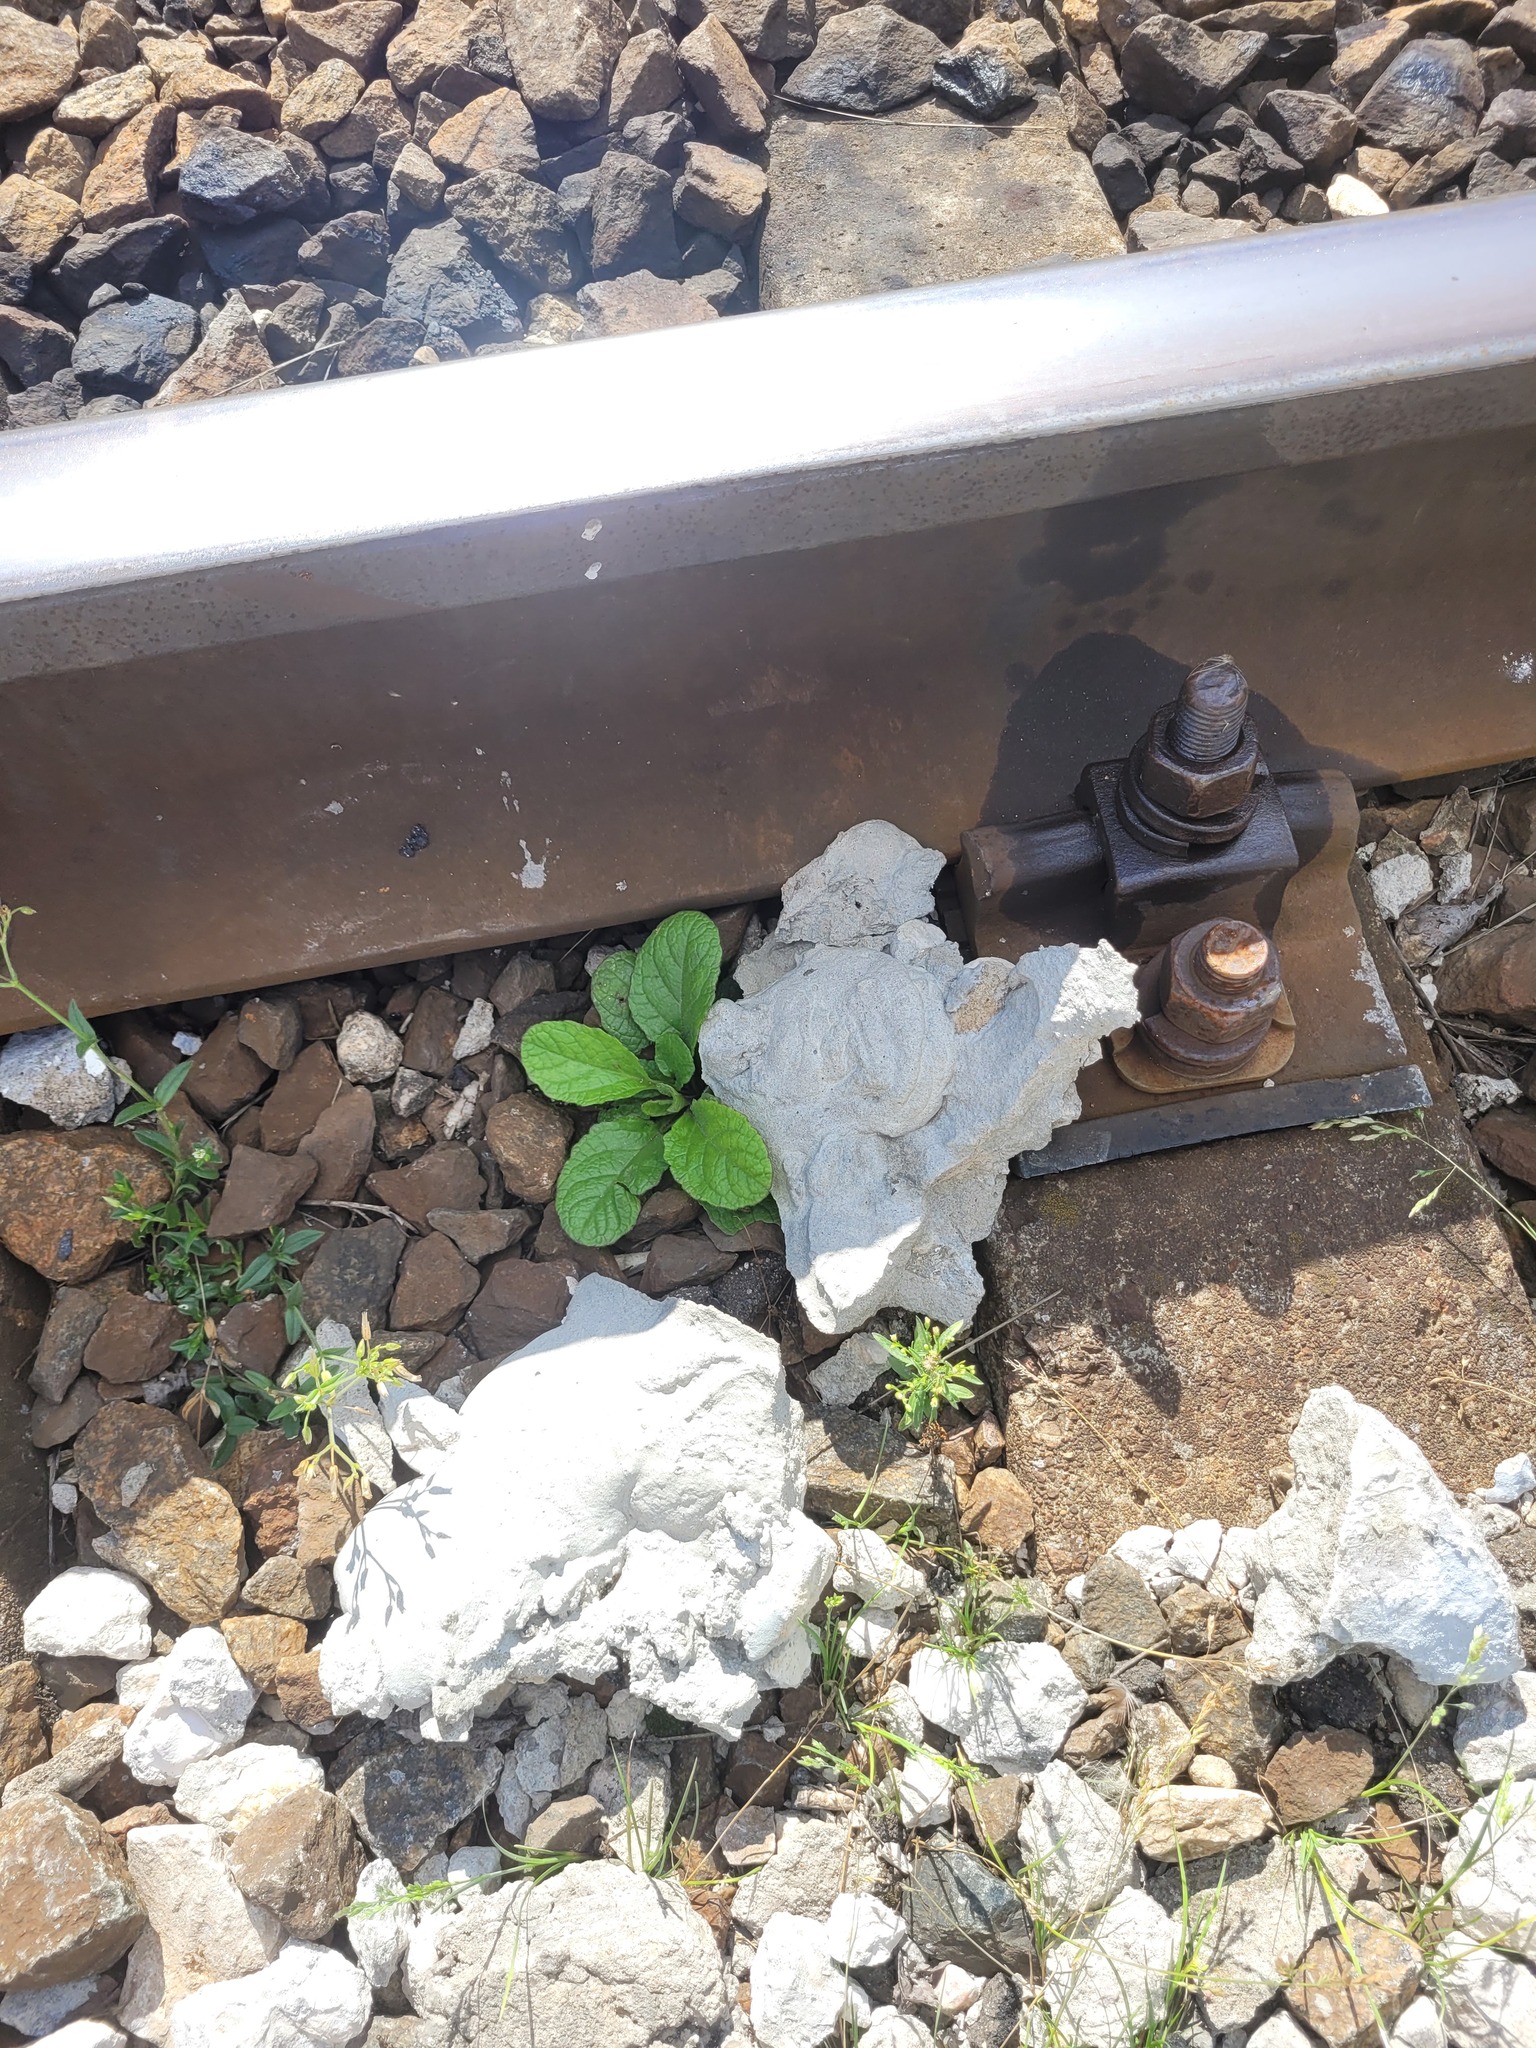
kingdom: Plantae
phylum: Tracheophyta
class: Magnoliopsida
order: Lamiales
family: Lamiaceae
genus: Ajuga
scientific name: Ajuga reptans
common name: Bugle
